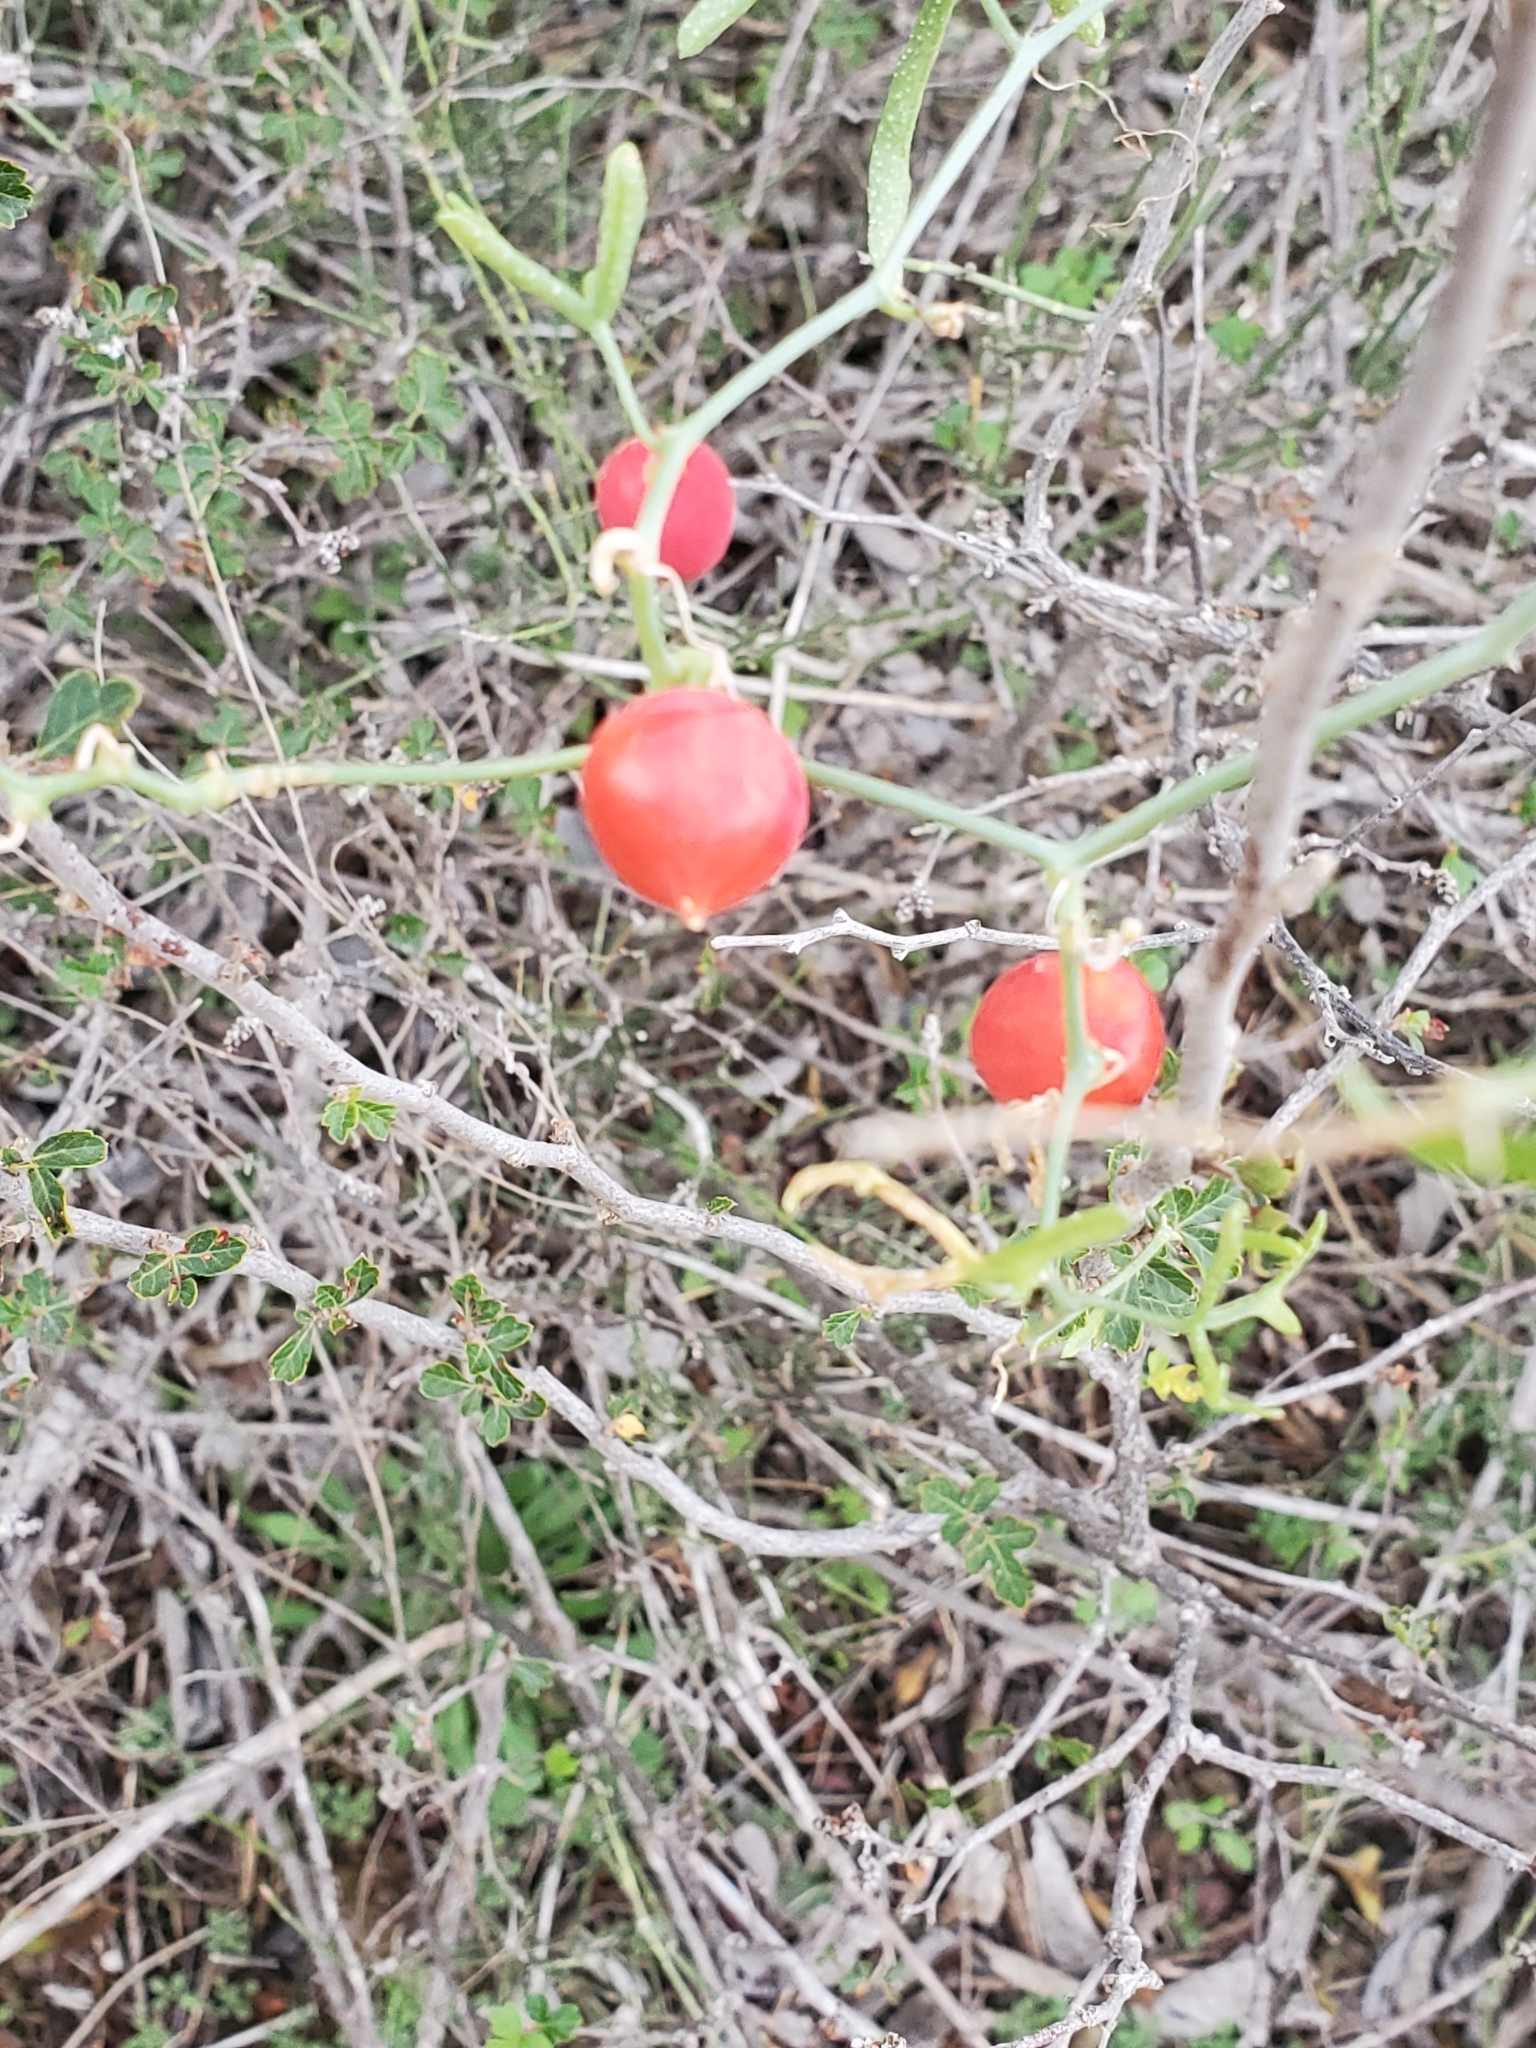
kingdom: Plantae
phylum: Tracheophyta
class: Magnoliopsida
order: Cucurbitales
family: Cucurbitaceae
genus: Ibervillea
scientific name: Ibervillea tenuisecta
